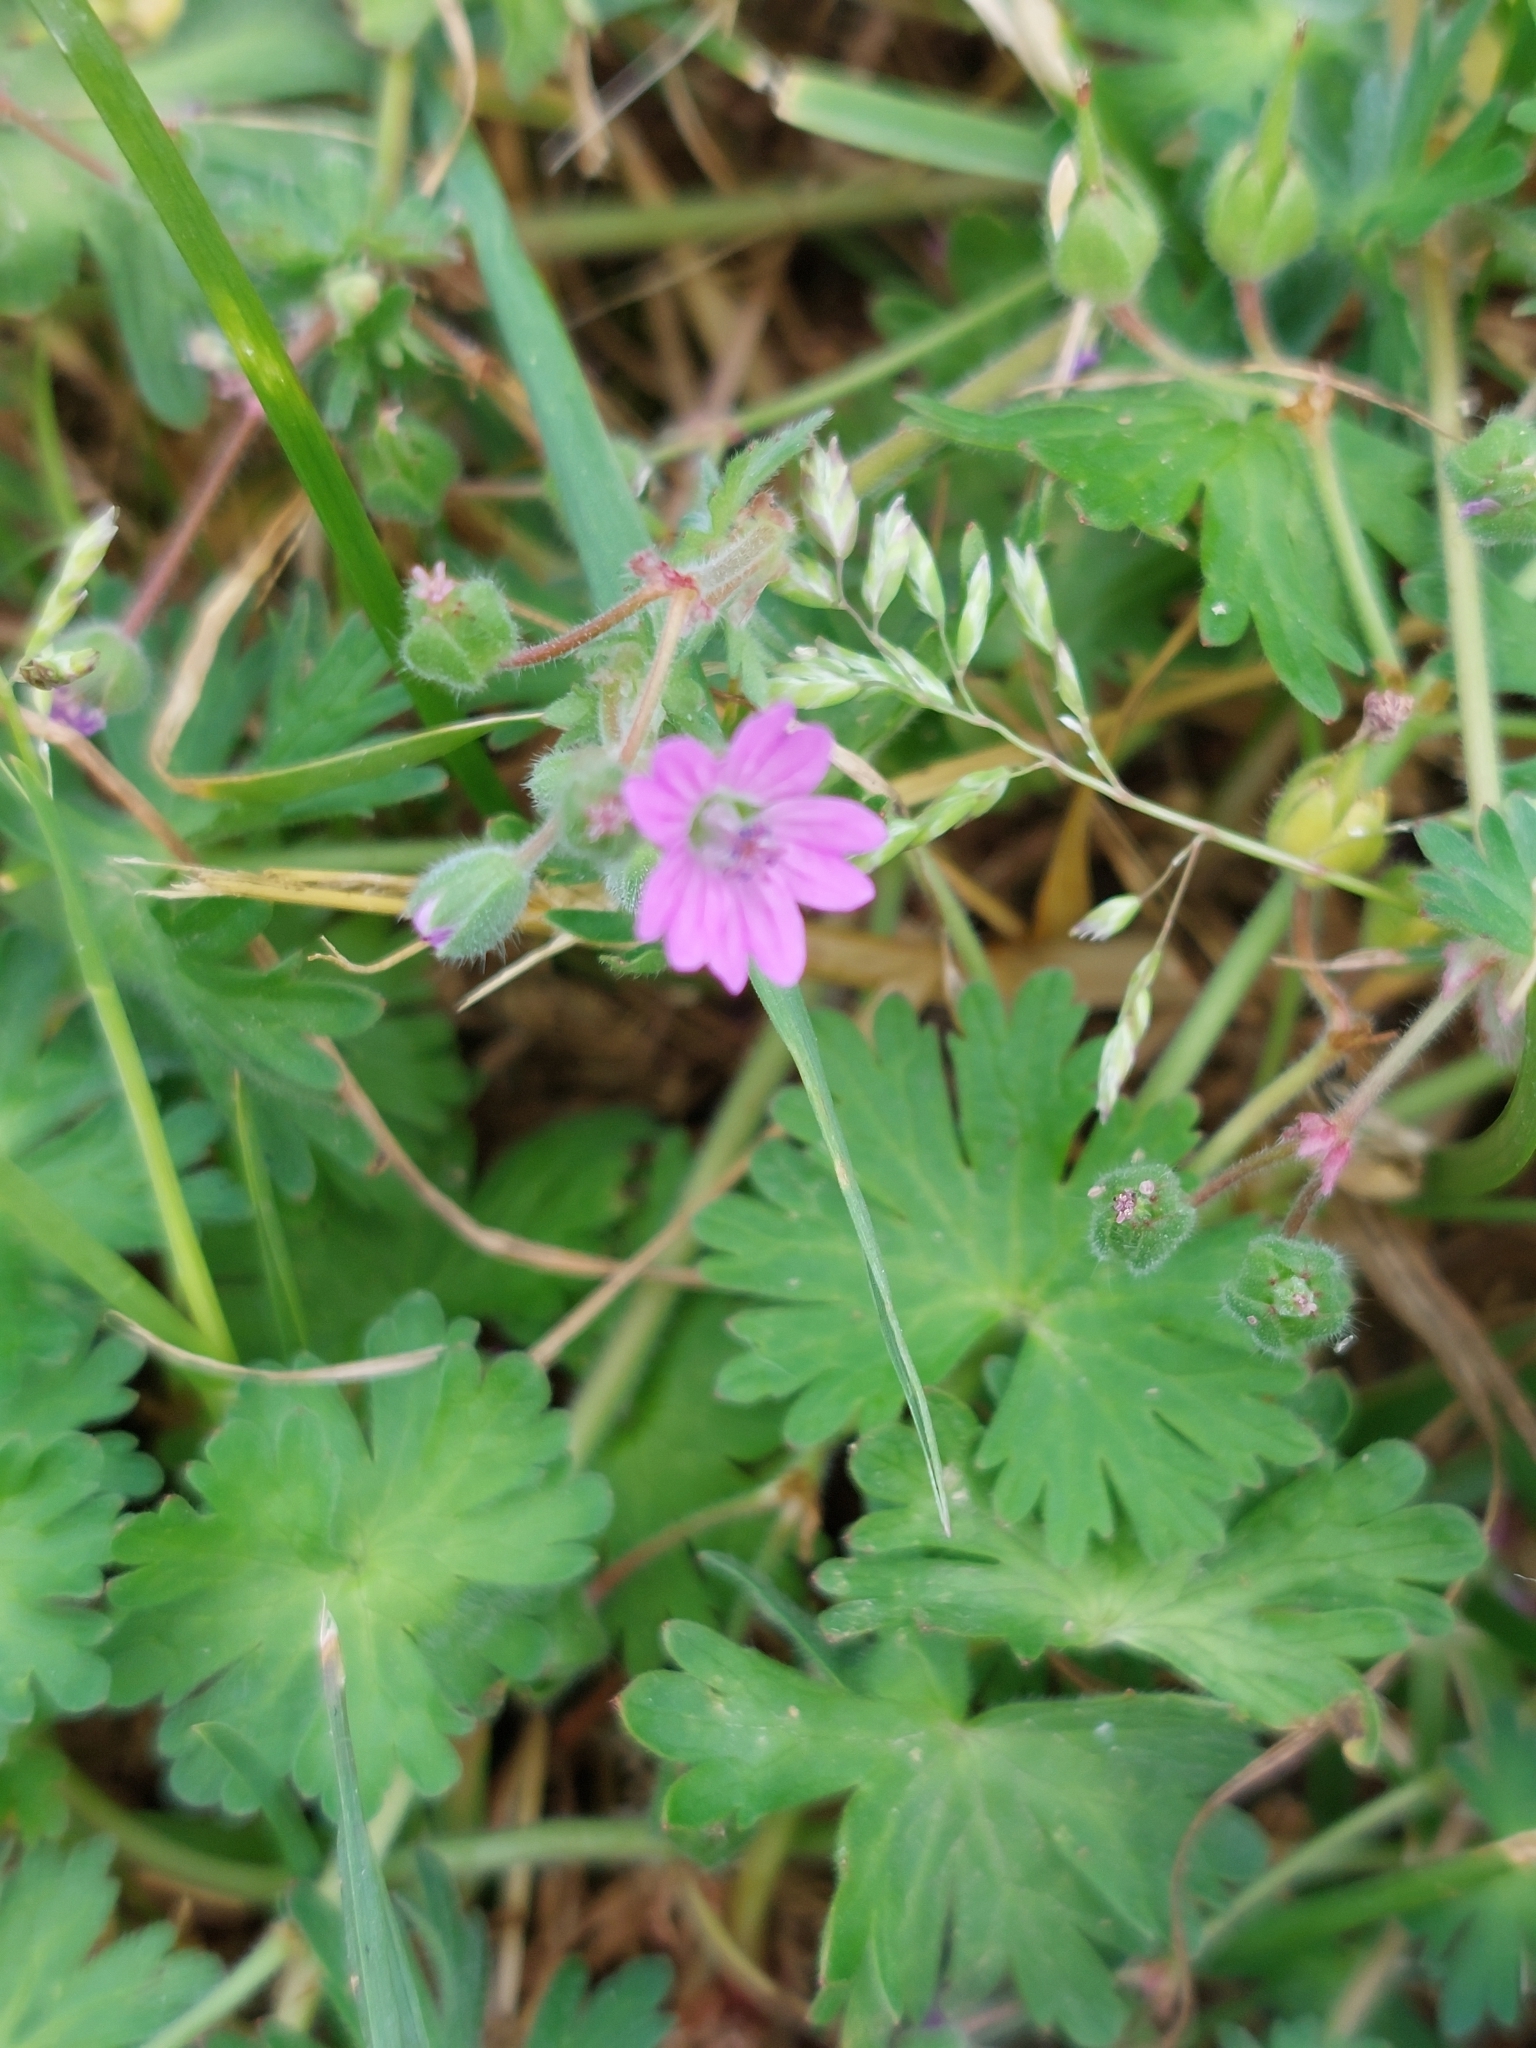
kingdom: Plantae
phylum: Tracheophyta
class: Magnoliopsida
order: Geraniales
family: Geraniaceae
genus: Geranium
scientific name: Geranium molle
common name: Dove's-foot crane's-bill
